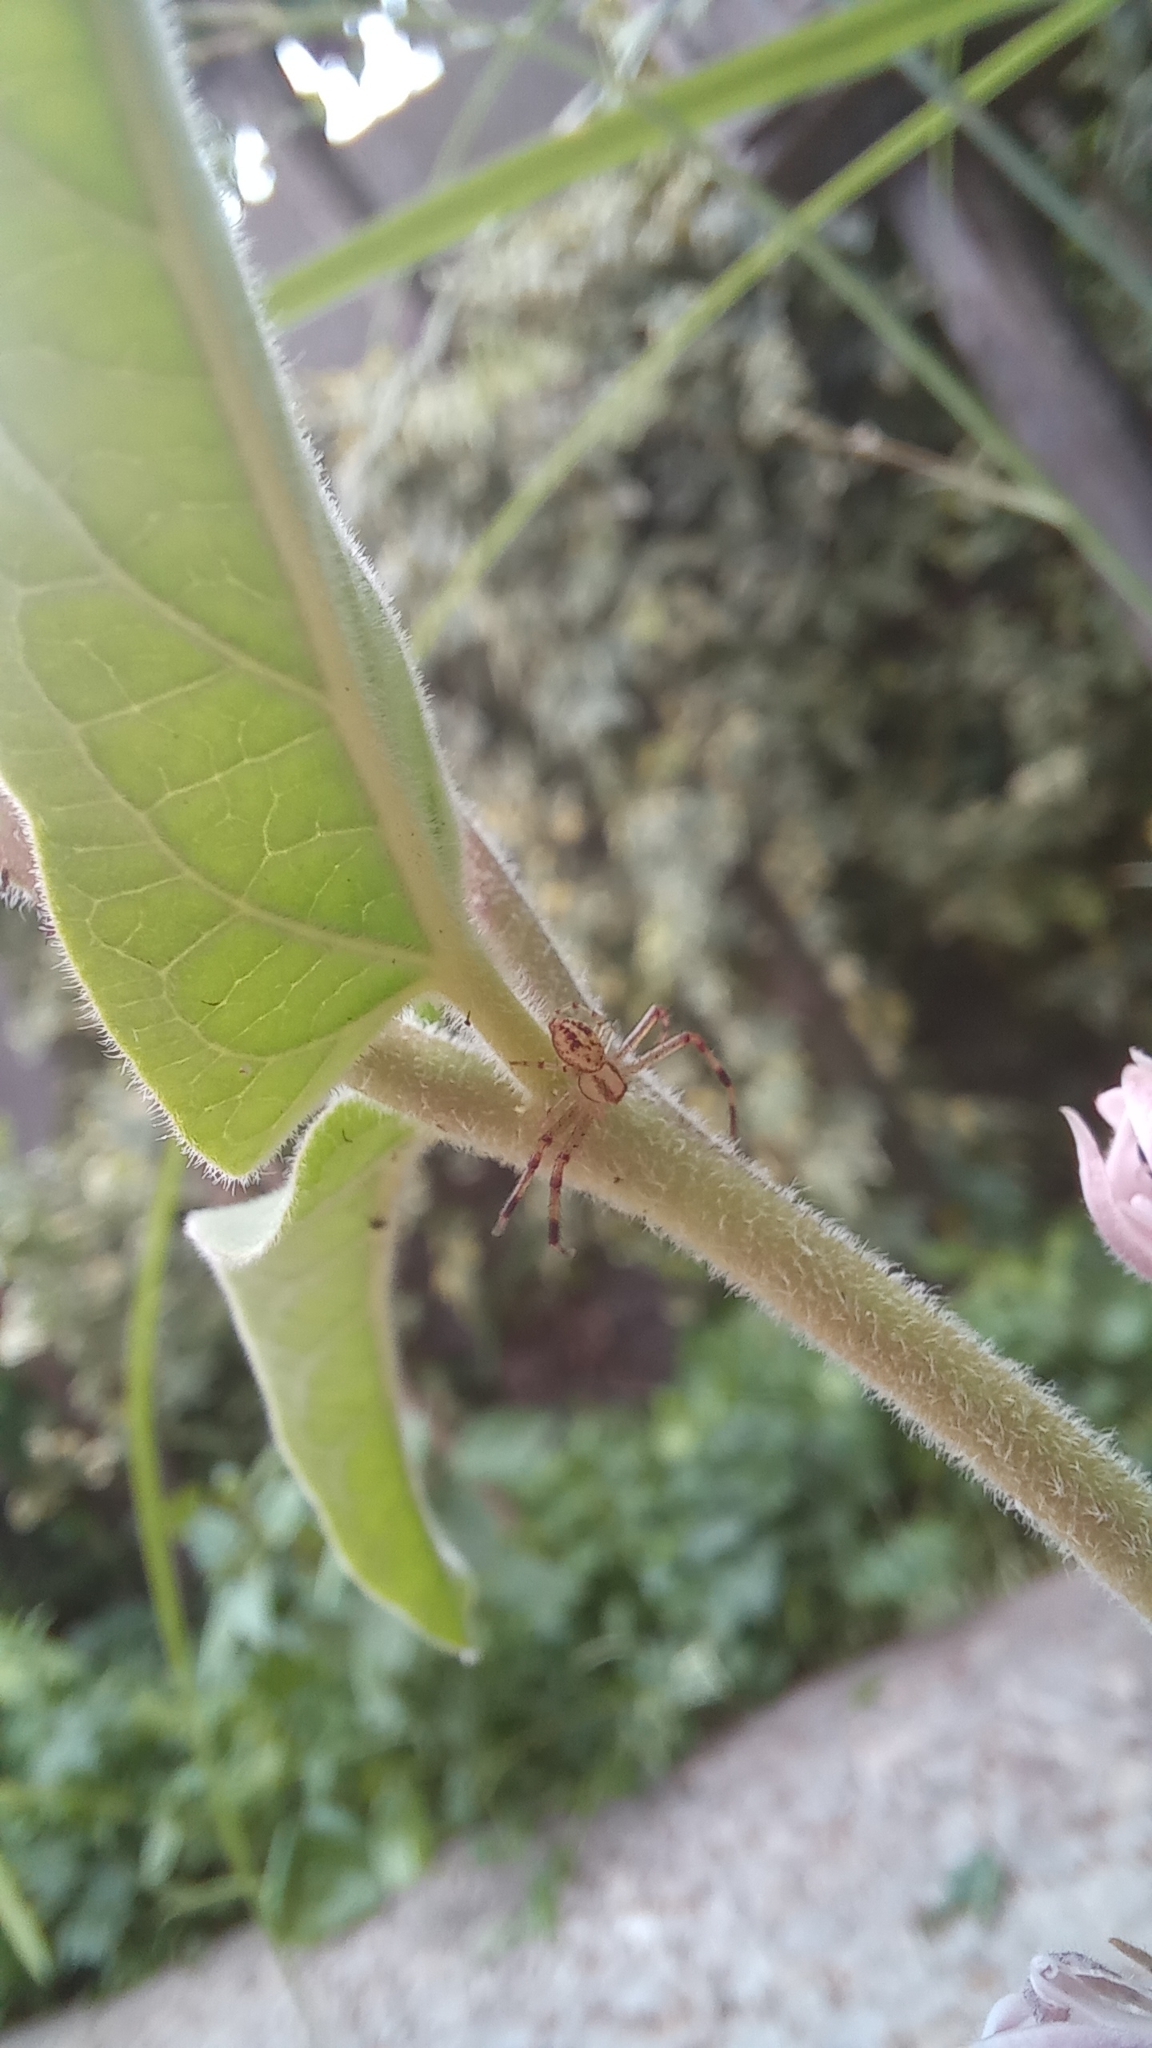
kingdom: Animalia
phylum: Arthropoda
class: Arachnida
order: Araneae
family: Thomisidae
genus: Misumenops
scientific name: Misumenops
